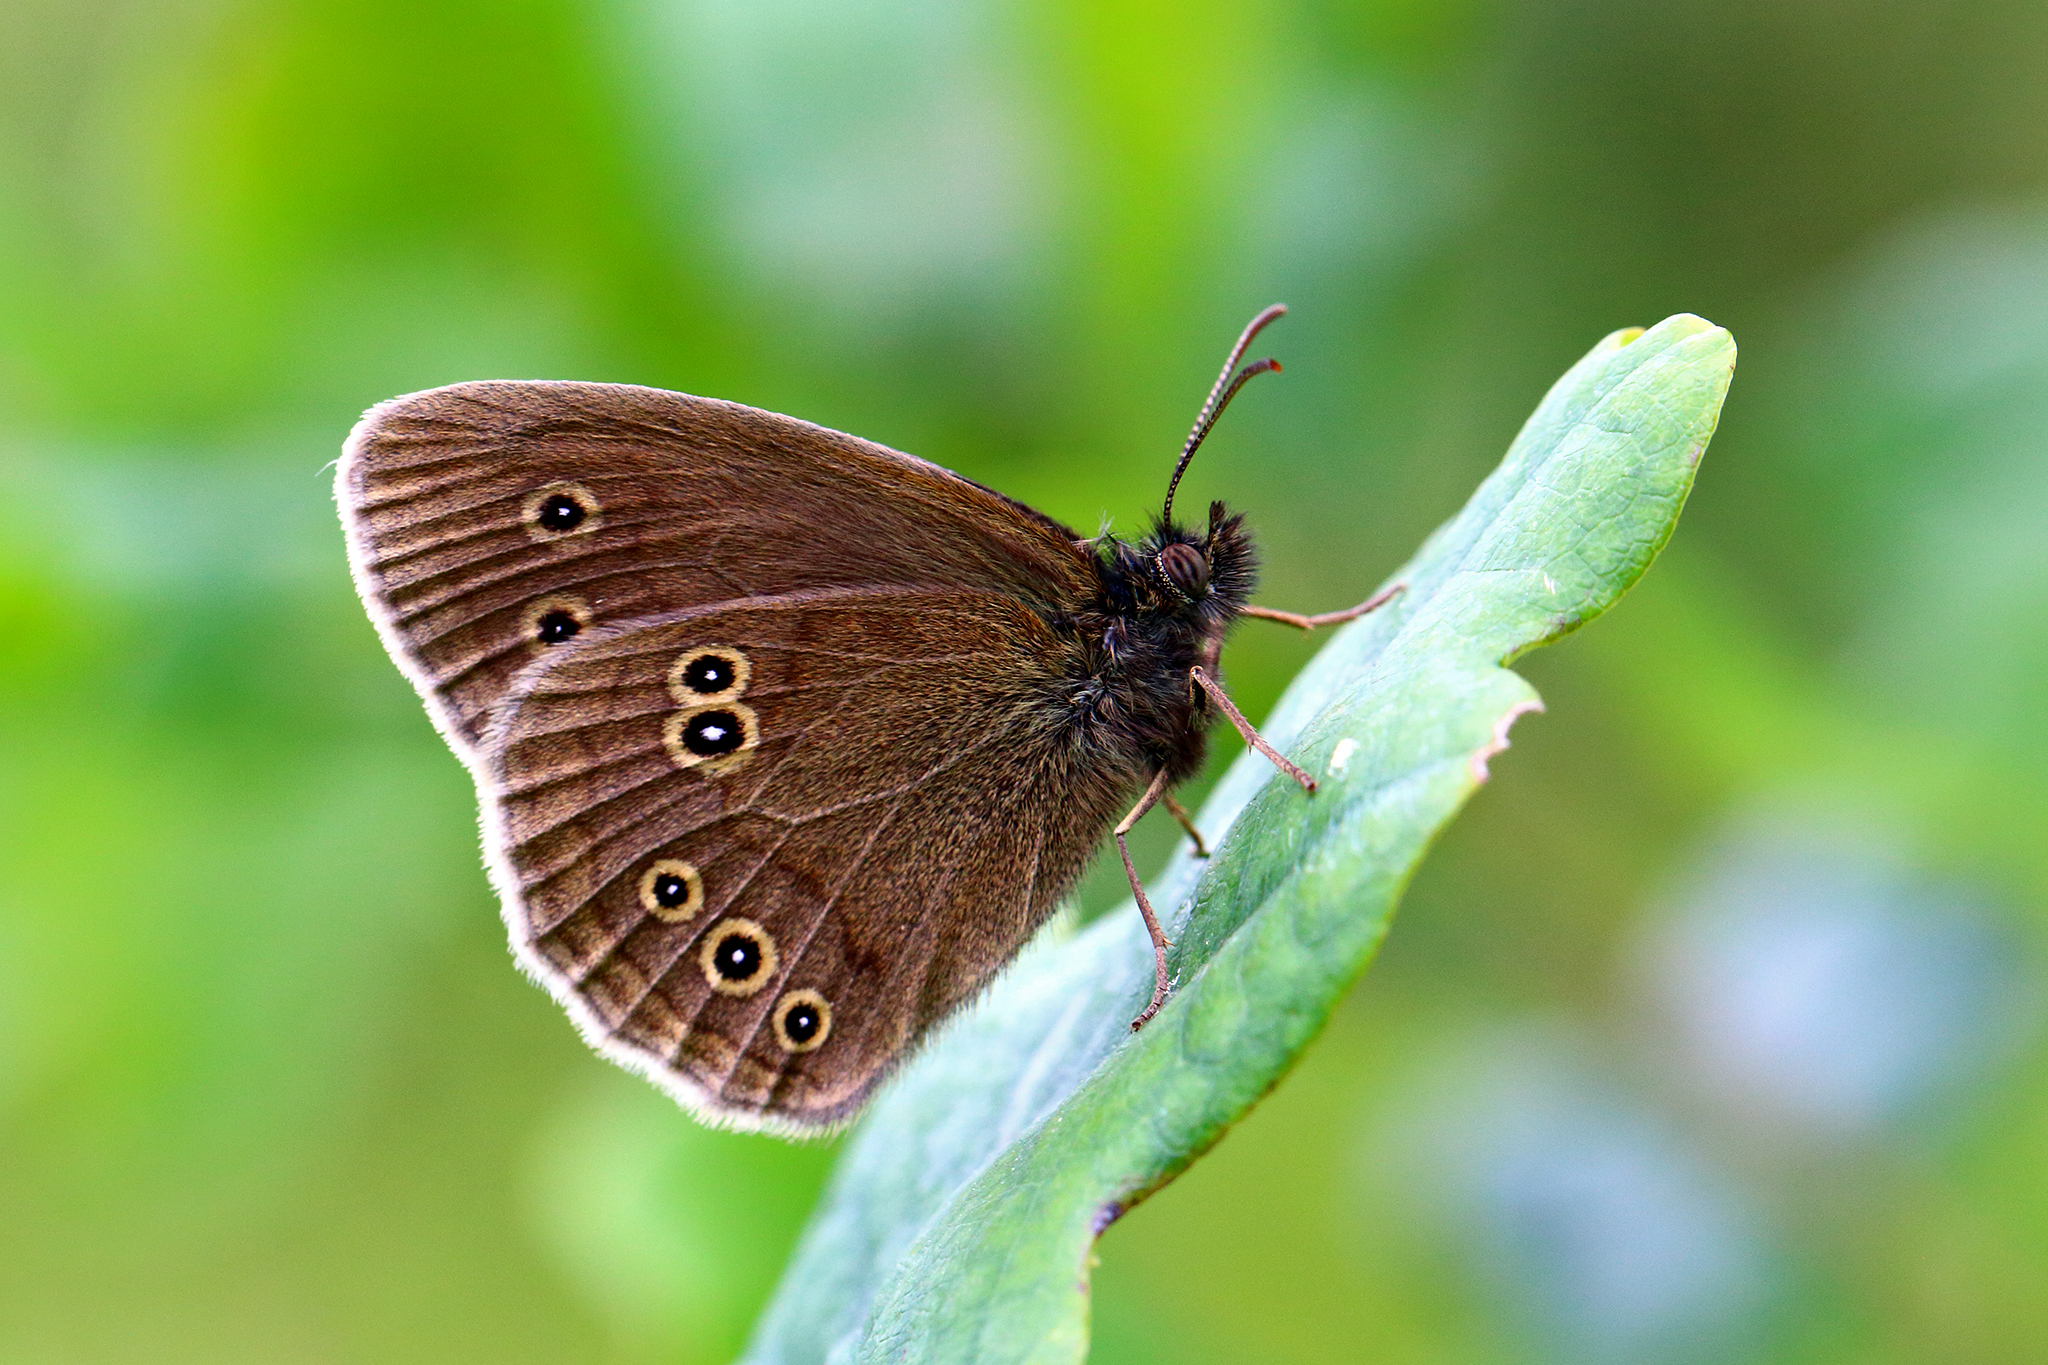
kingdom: Animalia
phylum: Arthropoda
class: Insecta
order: Lepidoptera
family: Nymphalidae
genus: Aphantopus
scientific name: Aphantopus hyperantus
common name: Ringlet
